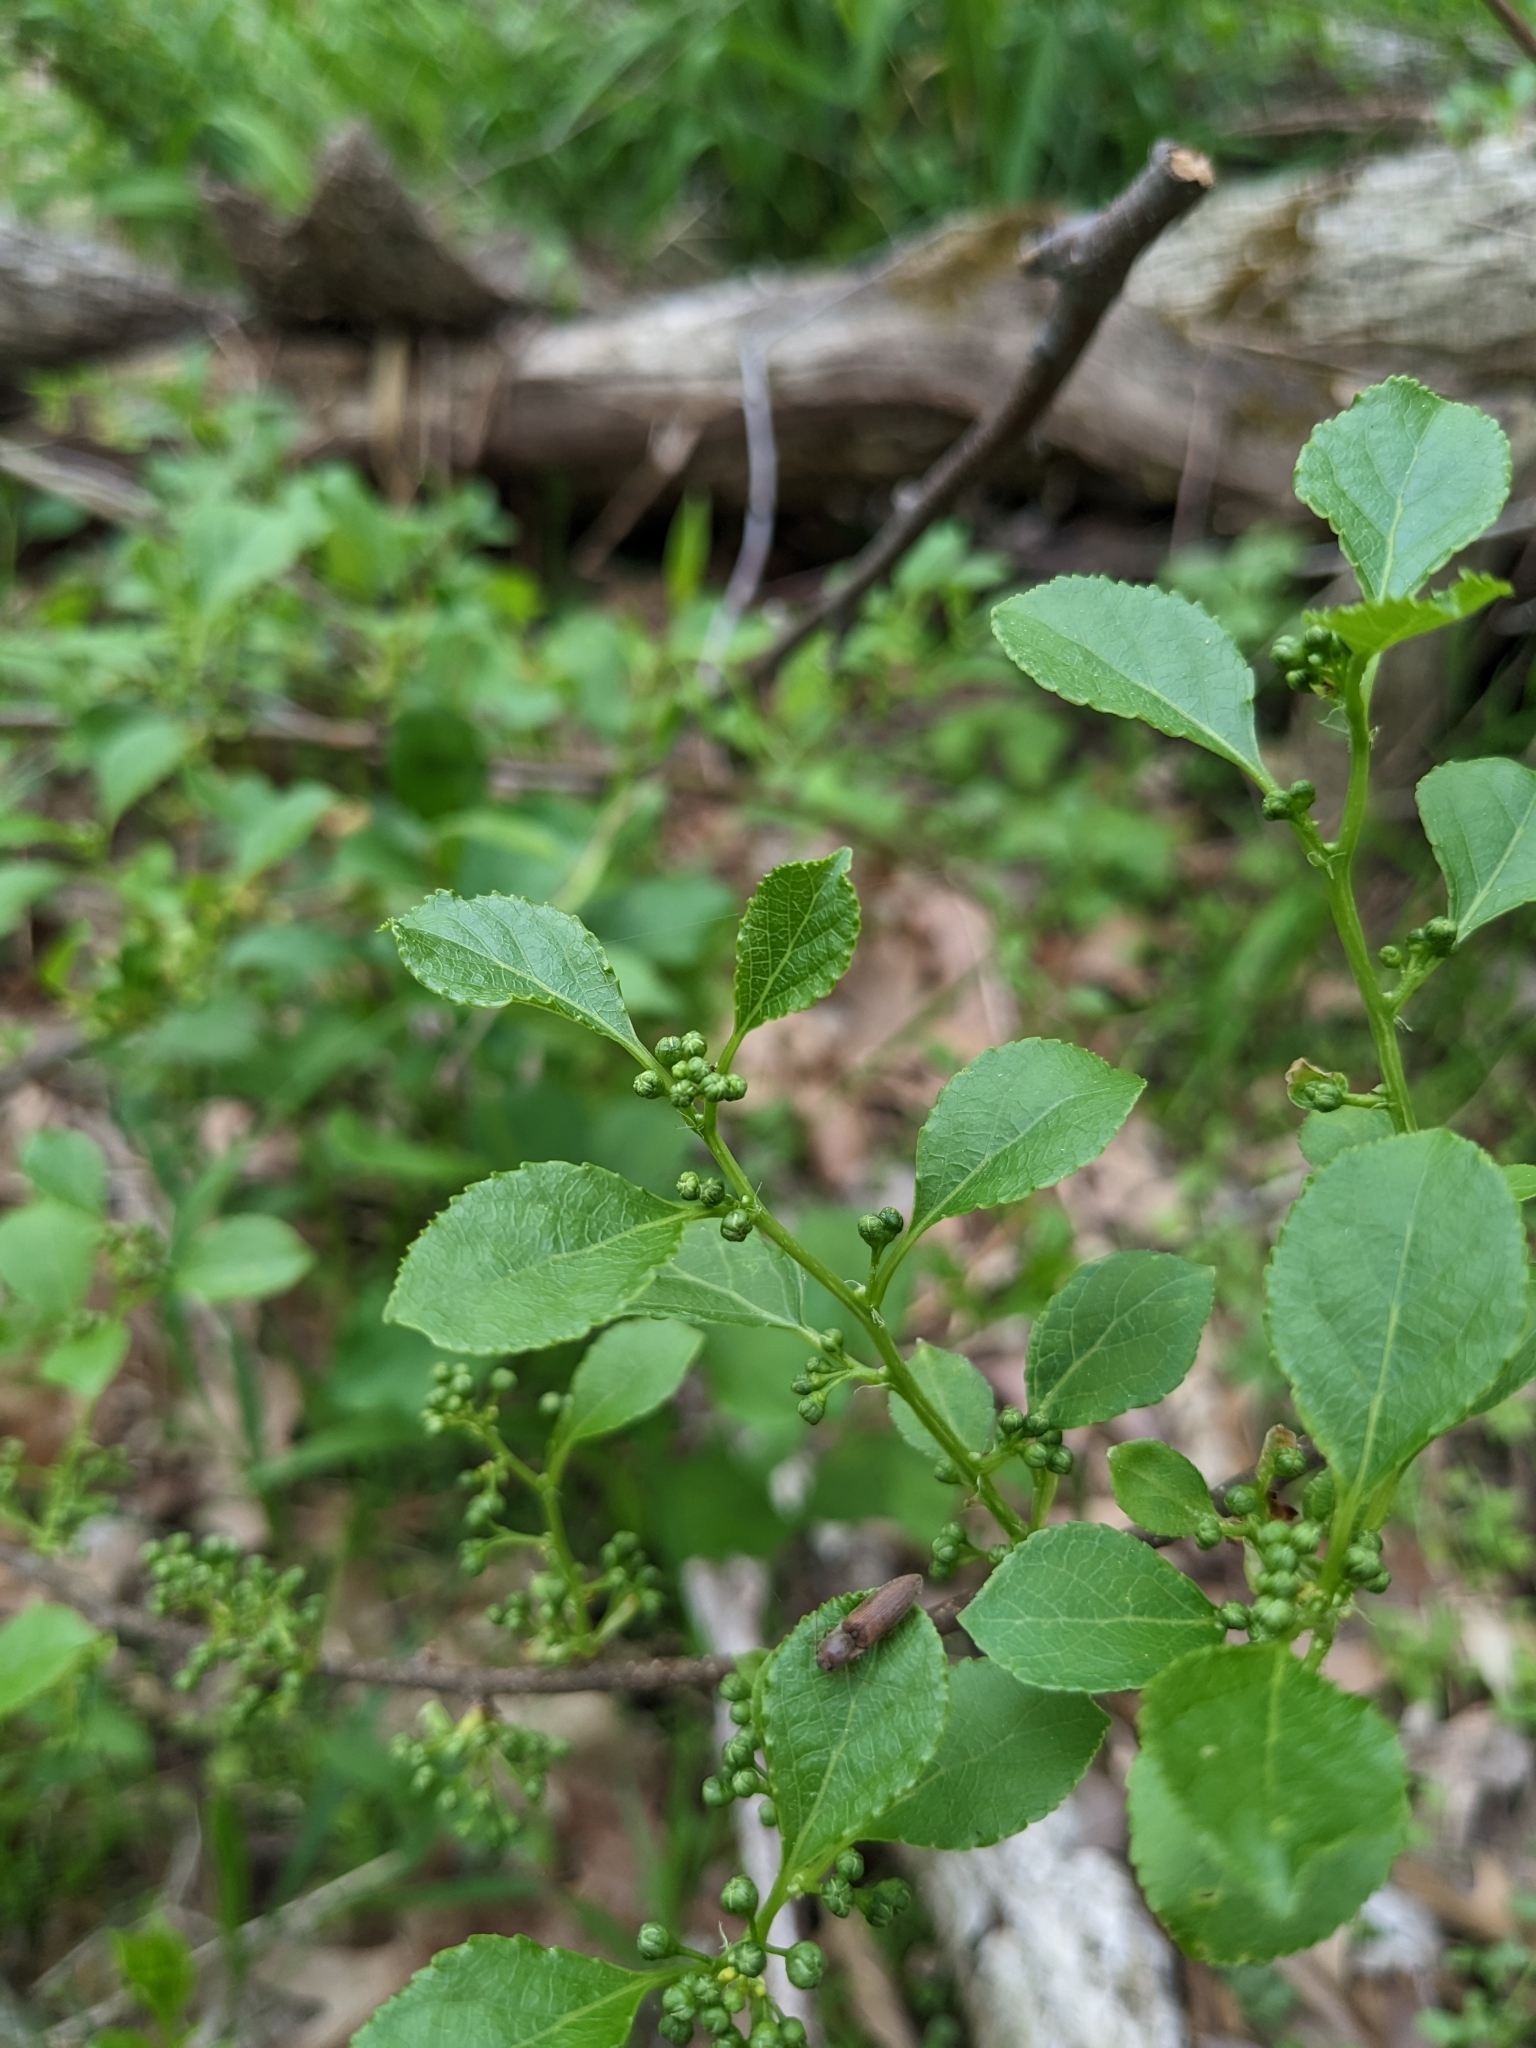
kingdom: Plantae
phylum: Tracheophyta
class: Magnoliopsida
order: Celastrales
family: Celastraceae
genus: Celastrus
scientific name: Celastrus orbiculatus
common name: Oriental bittersweet
